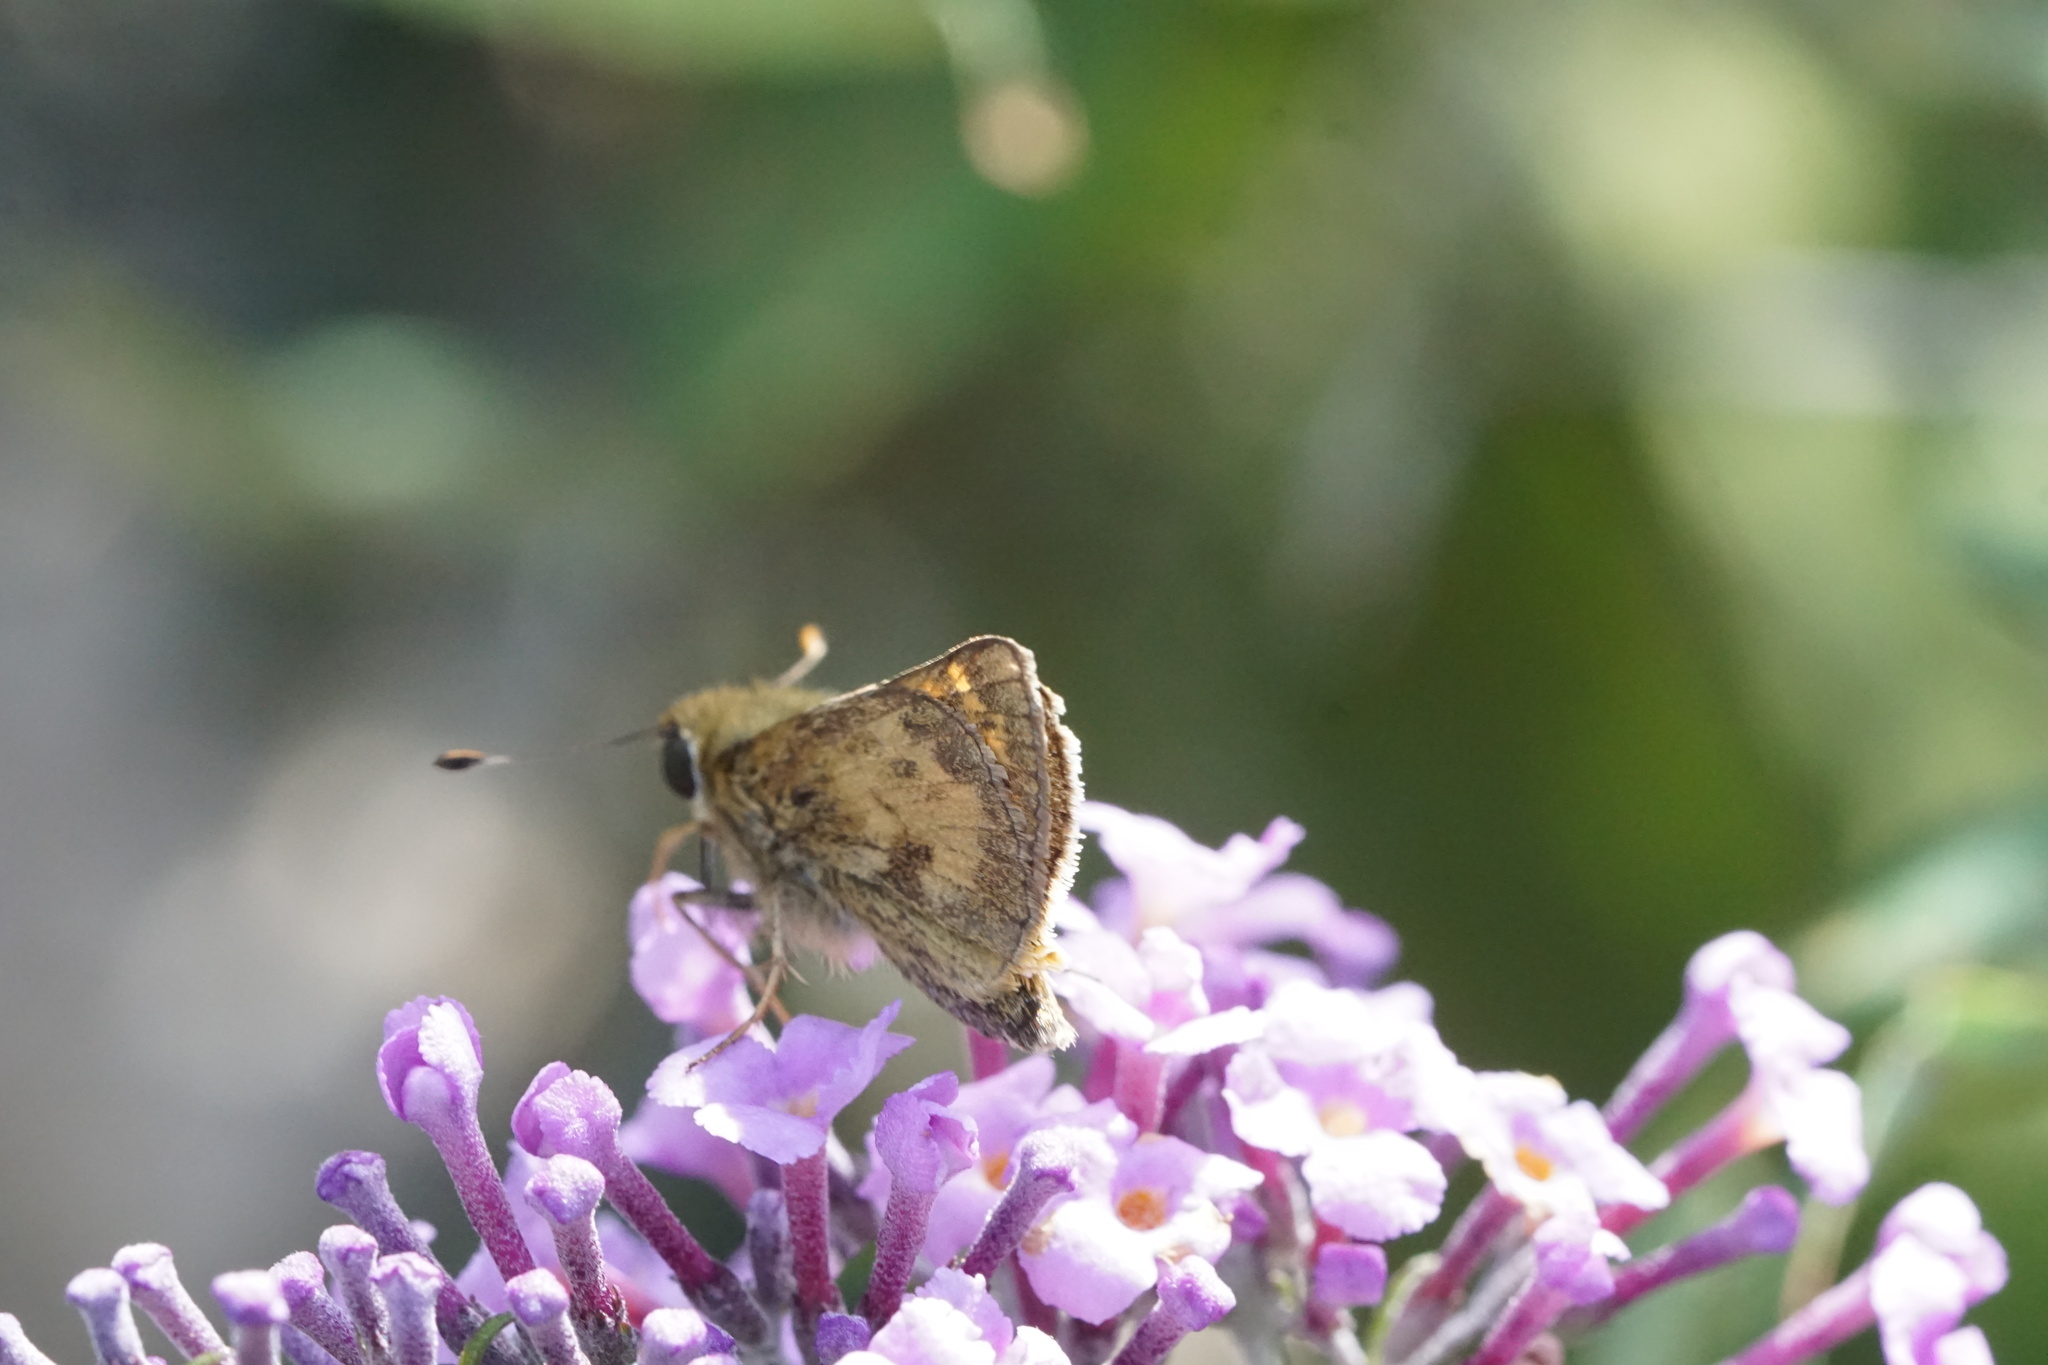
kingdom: Animalia
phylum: Arthropoda
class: Insecta
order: Lepidoptera
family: Hesperiidae
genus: Atalopedes
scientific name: Atalopedes
